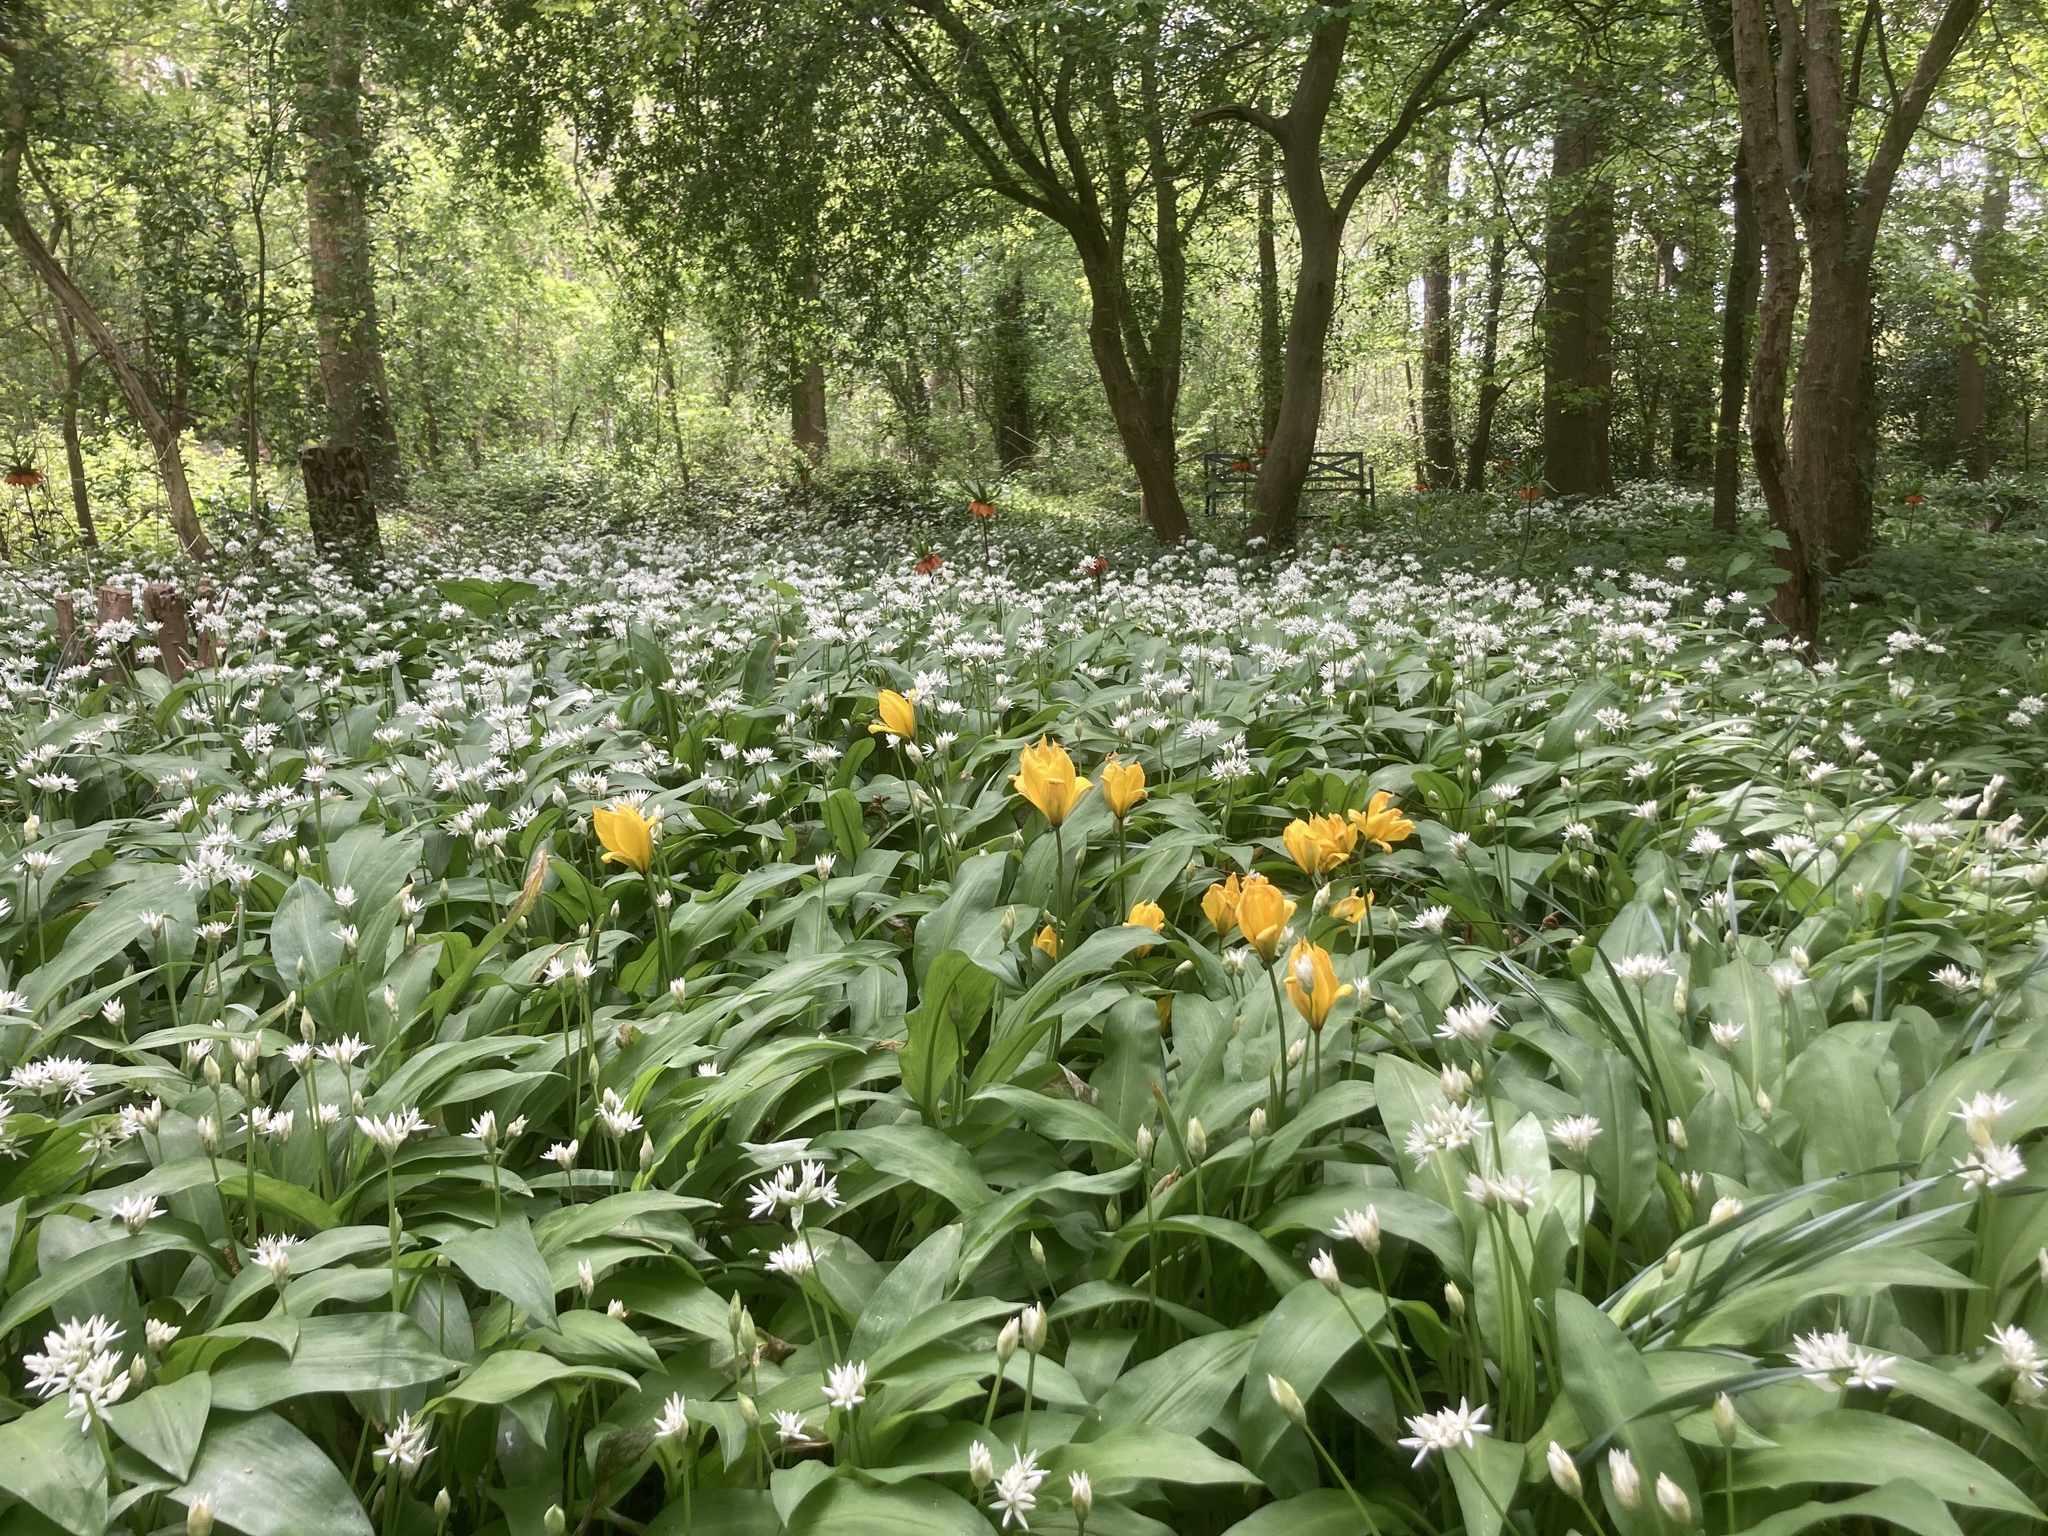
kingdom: Plantae
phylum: Tracheophyta
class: Liliopsida
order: Asparagales
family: Amaryllidaceae
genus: Allium
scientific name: Allium ursinum
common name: Ramsons
